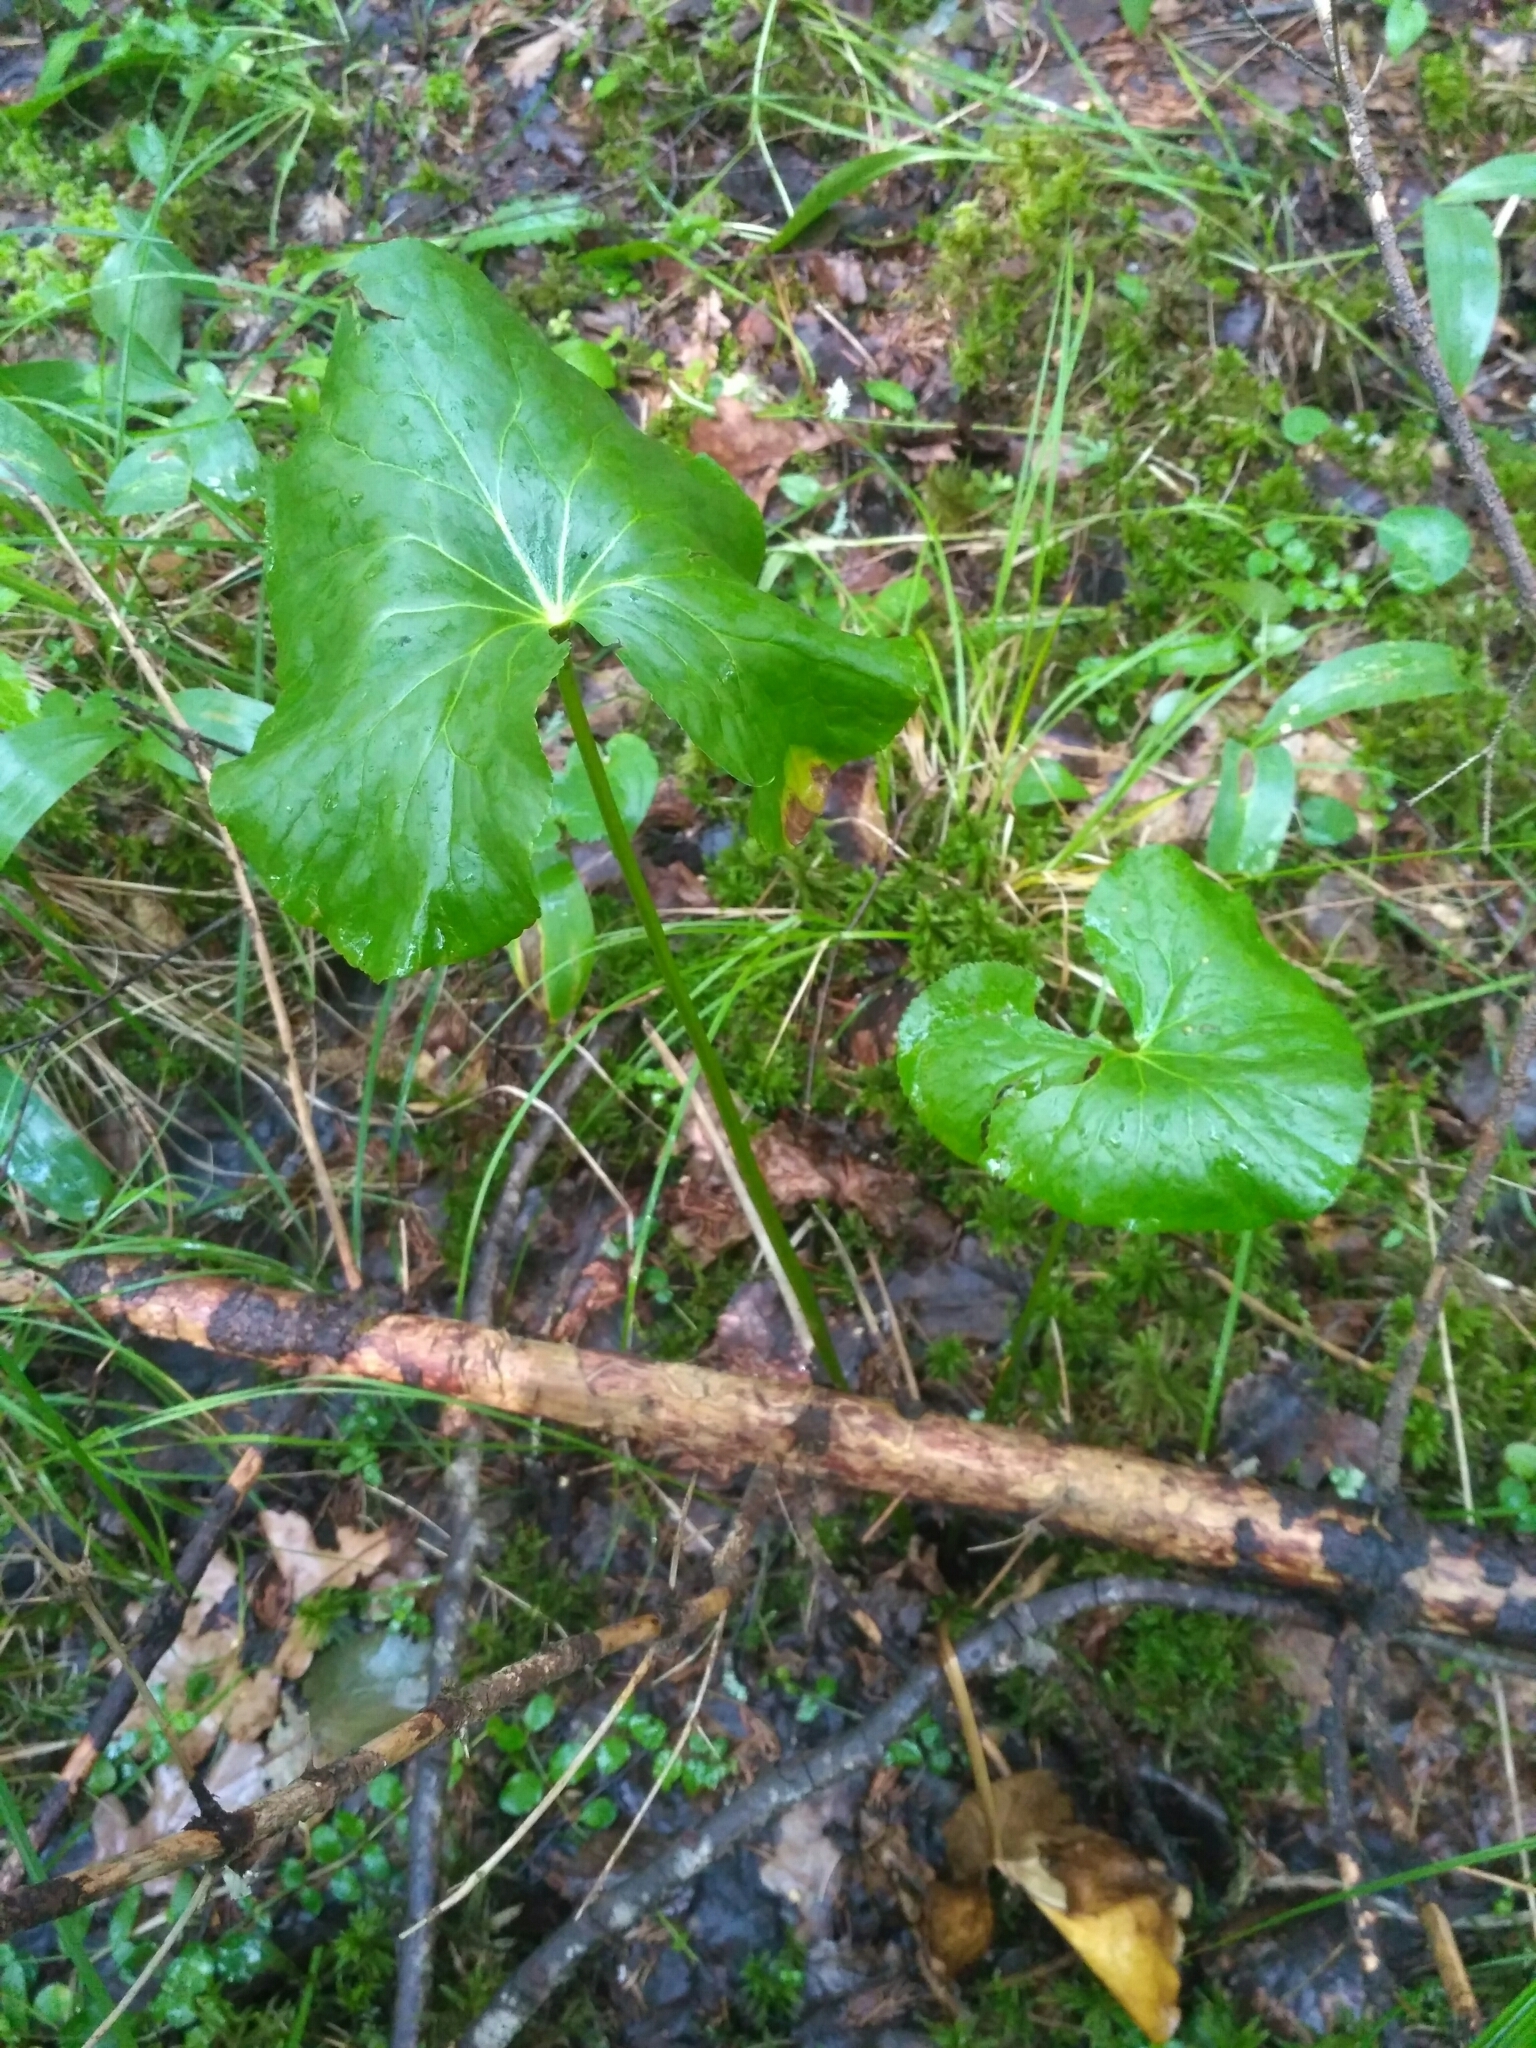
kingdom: Plantae
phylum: Tracheophyta
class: Magnoliopsida
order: Ranunculales
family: Ranunculaceae
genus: Caltha
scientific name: Caltha palustris
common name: Marsh marigold
